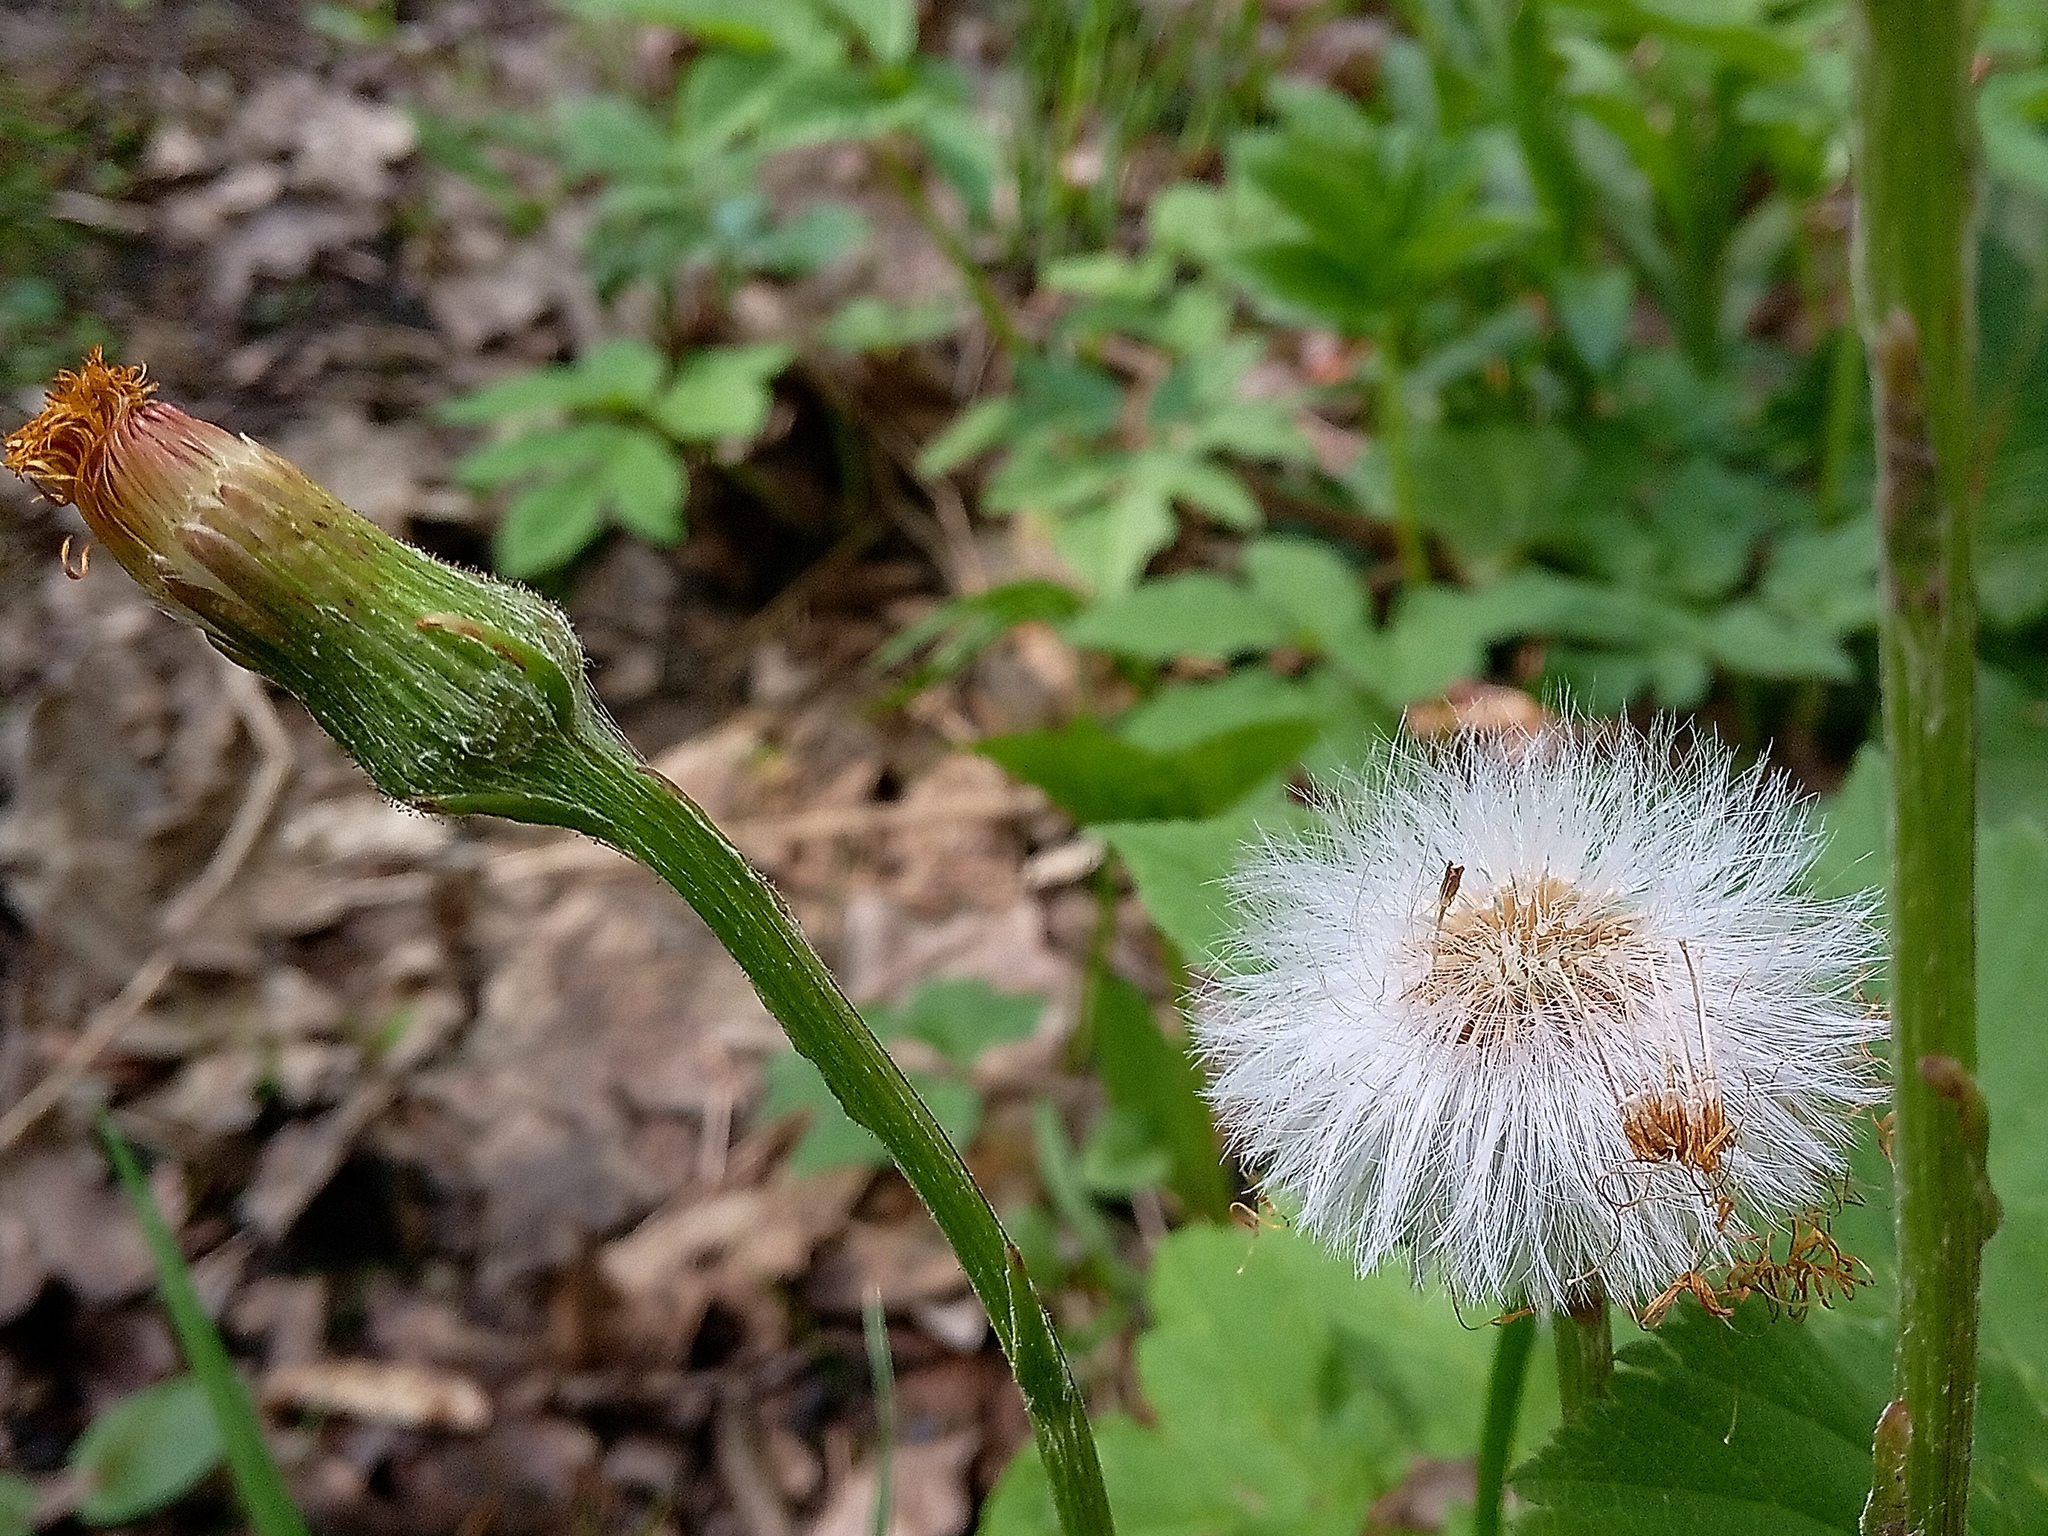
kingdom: Plantae
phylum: Tracheophyta
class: Magnoliopsida
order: Asterales
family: Asteraceae
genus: Tussilago
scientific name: Tussilago farfara
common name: Coltsfoot
